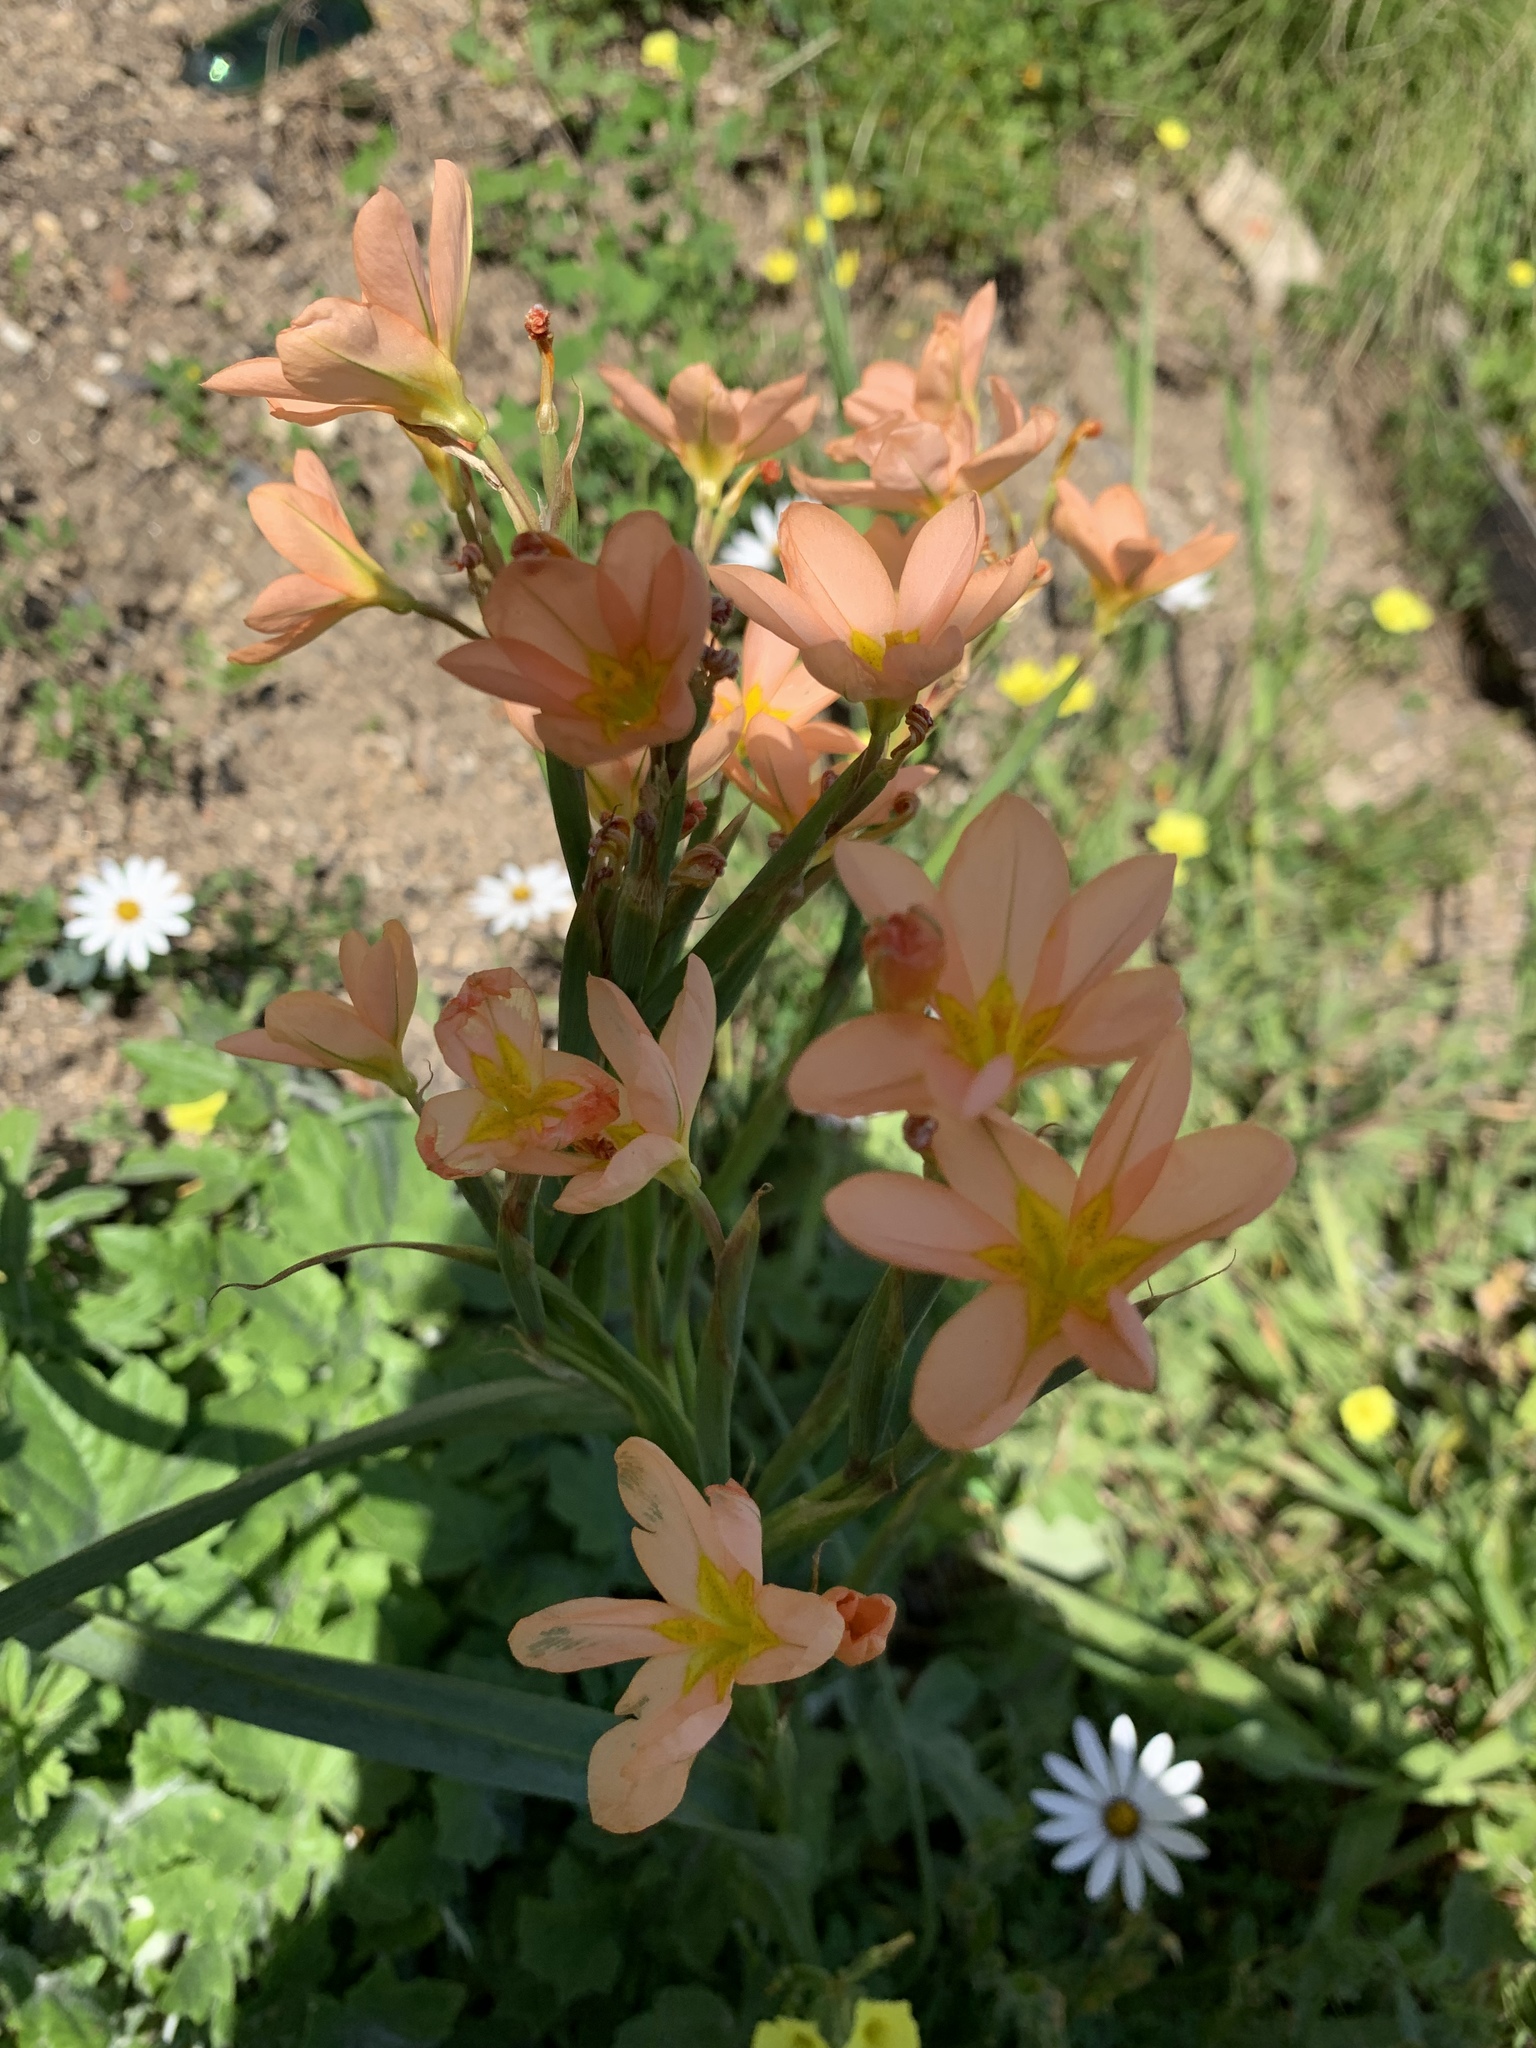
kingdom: Plantae
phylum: Tracheophyta
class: Liliopsida
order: Asparagales
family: Iridaceae
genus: Moraea
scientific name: Moraea miniata
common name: Two-leaf cape-tulip
